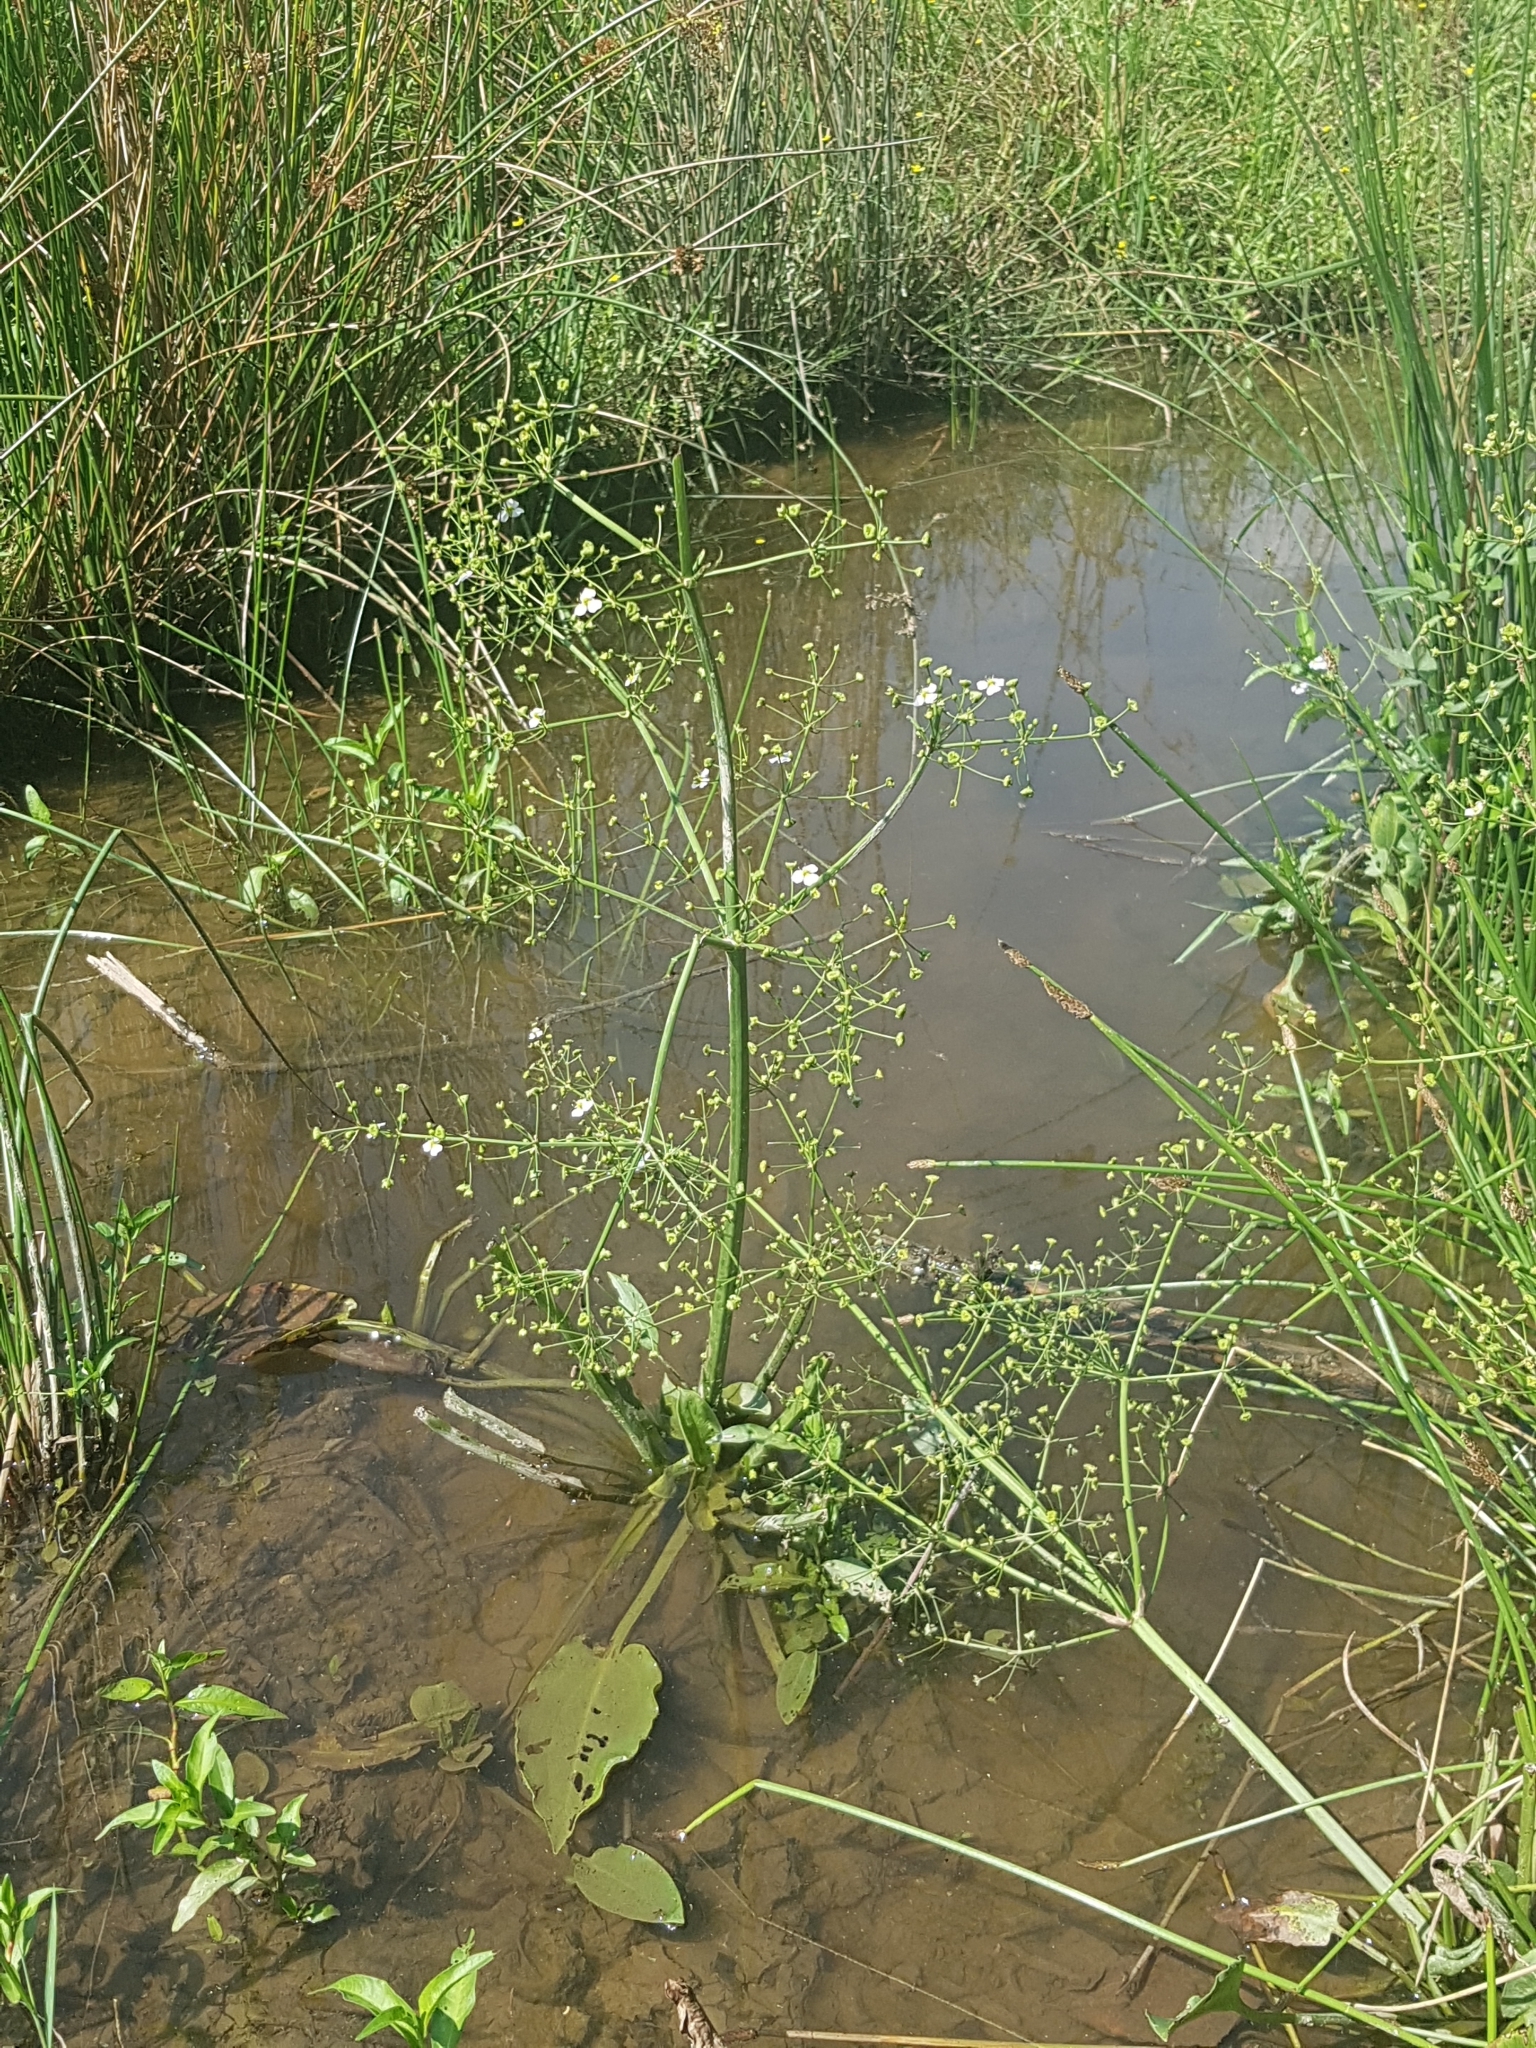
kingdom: Plantae
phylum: Tracheophyta
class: Liliopsida
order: Alismatales
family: Alismataceae
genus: Alisma
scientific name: Alisma plantago-aquatica
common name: Water-plantain
